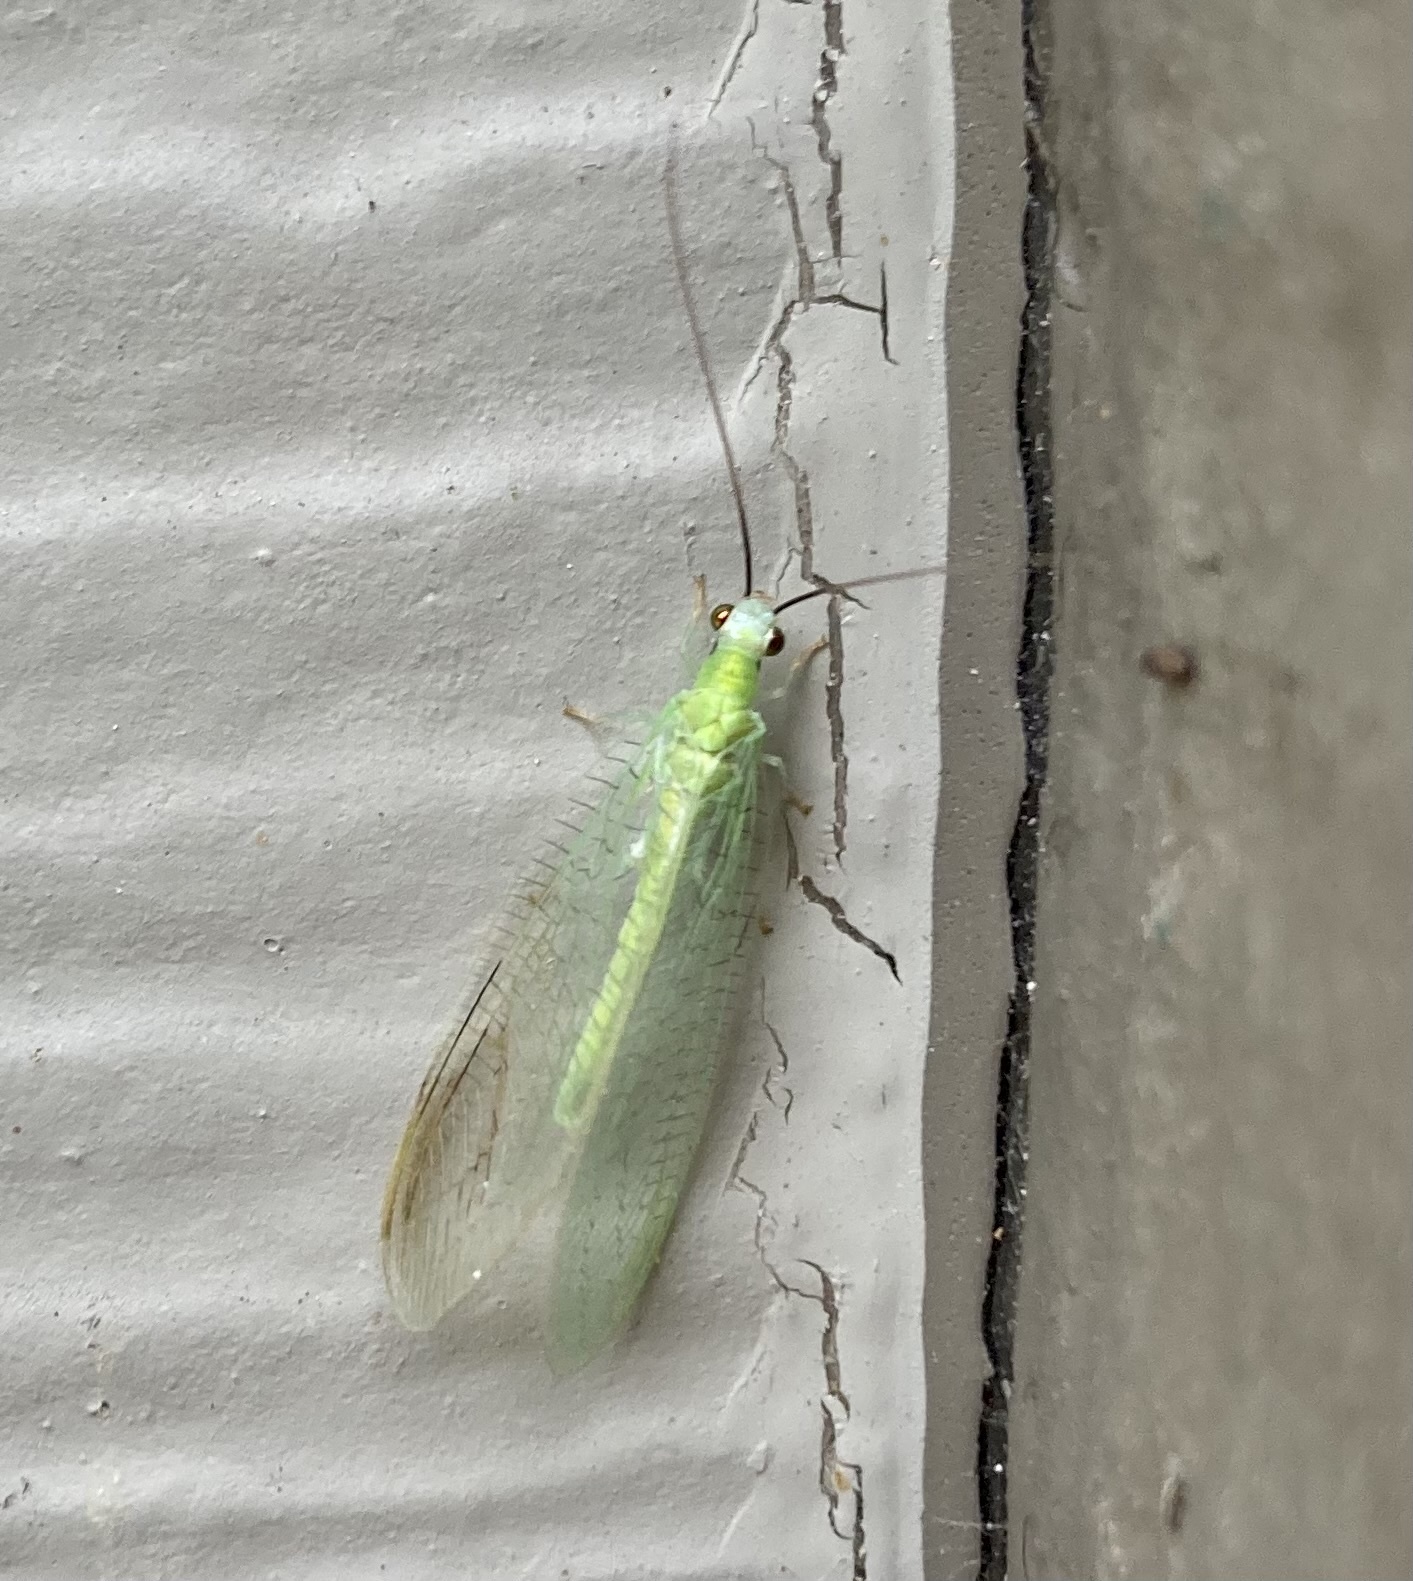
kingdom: Animalia
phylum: Arthropoda
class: Insecta
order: Neuroptera
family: Chrysopidae
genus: Chrysopa
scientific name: Chrysopa nigricornis
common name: Black-horned green lacewing
